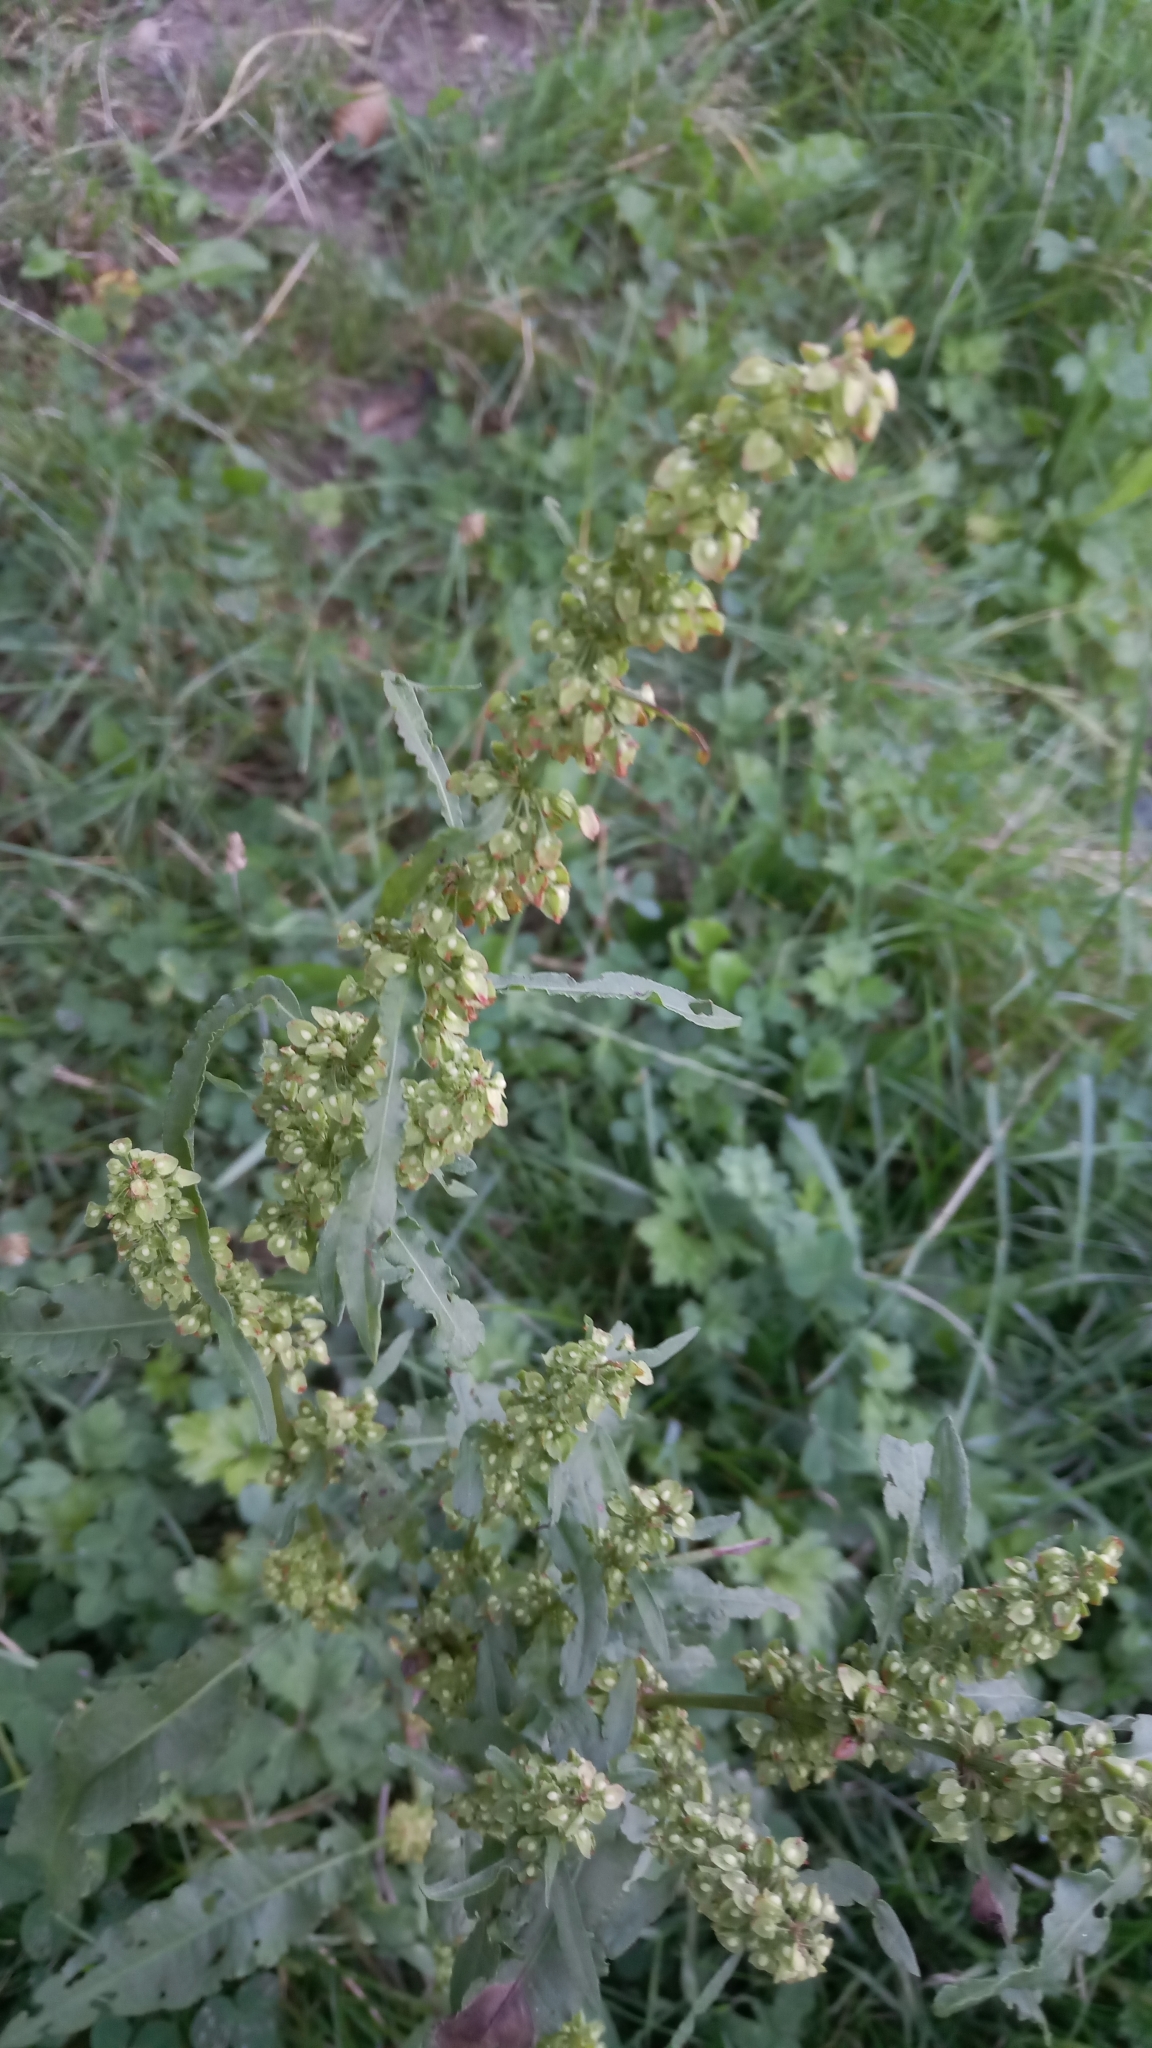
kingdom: Plantae
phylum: Tracheophyta
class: Magnoliopsida
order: Caryophyllales
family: Polygonaceae
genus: Rumex
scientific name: Rumex crispus
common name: Curled dock
